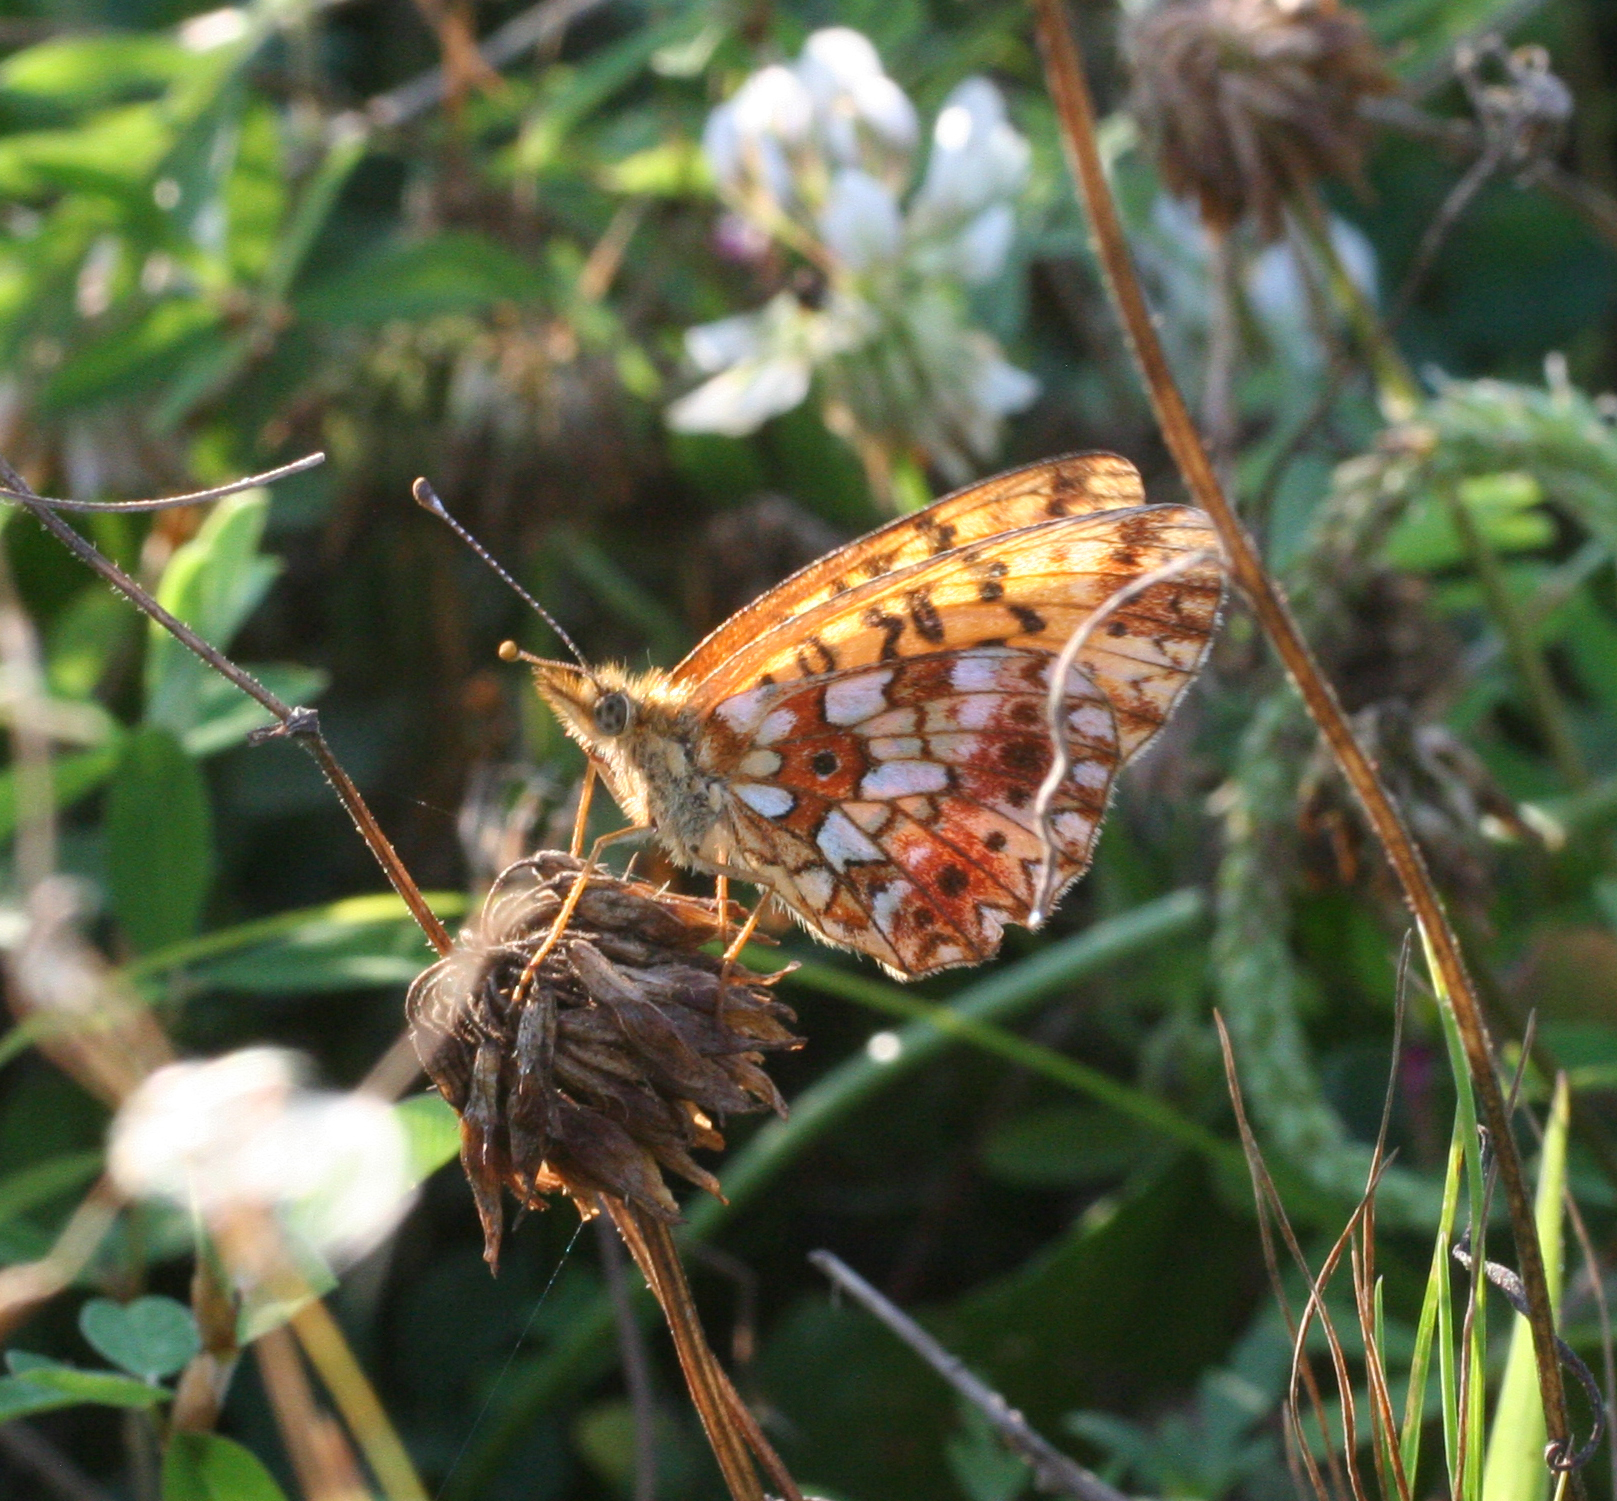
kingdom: Animalia
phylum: Arthropoda
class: Insecta
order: Lepidoptera
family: Nymphalidae
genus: Boloria
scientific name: Boloria perryi
